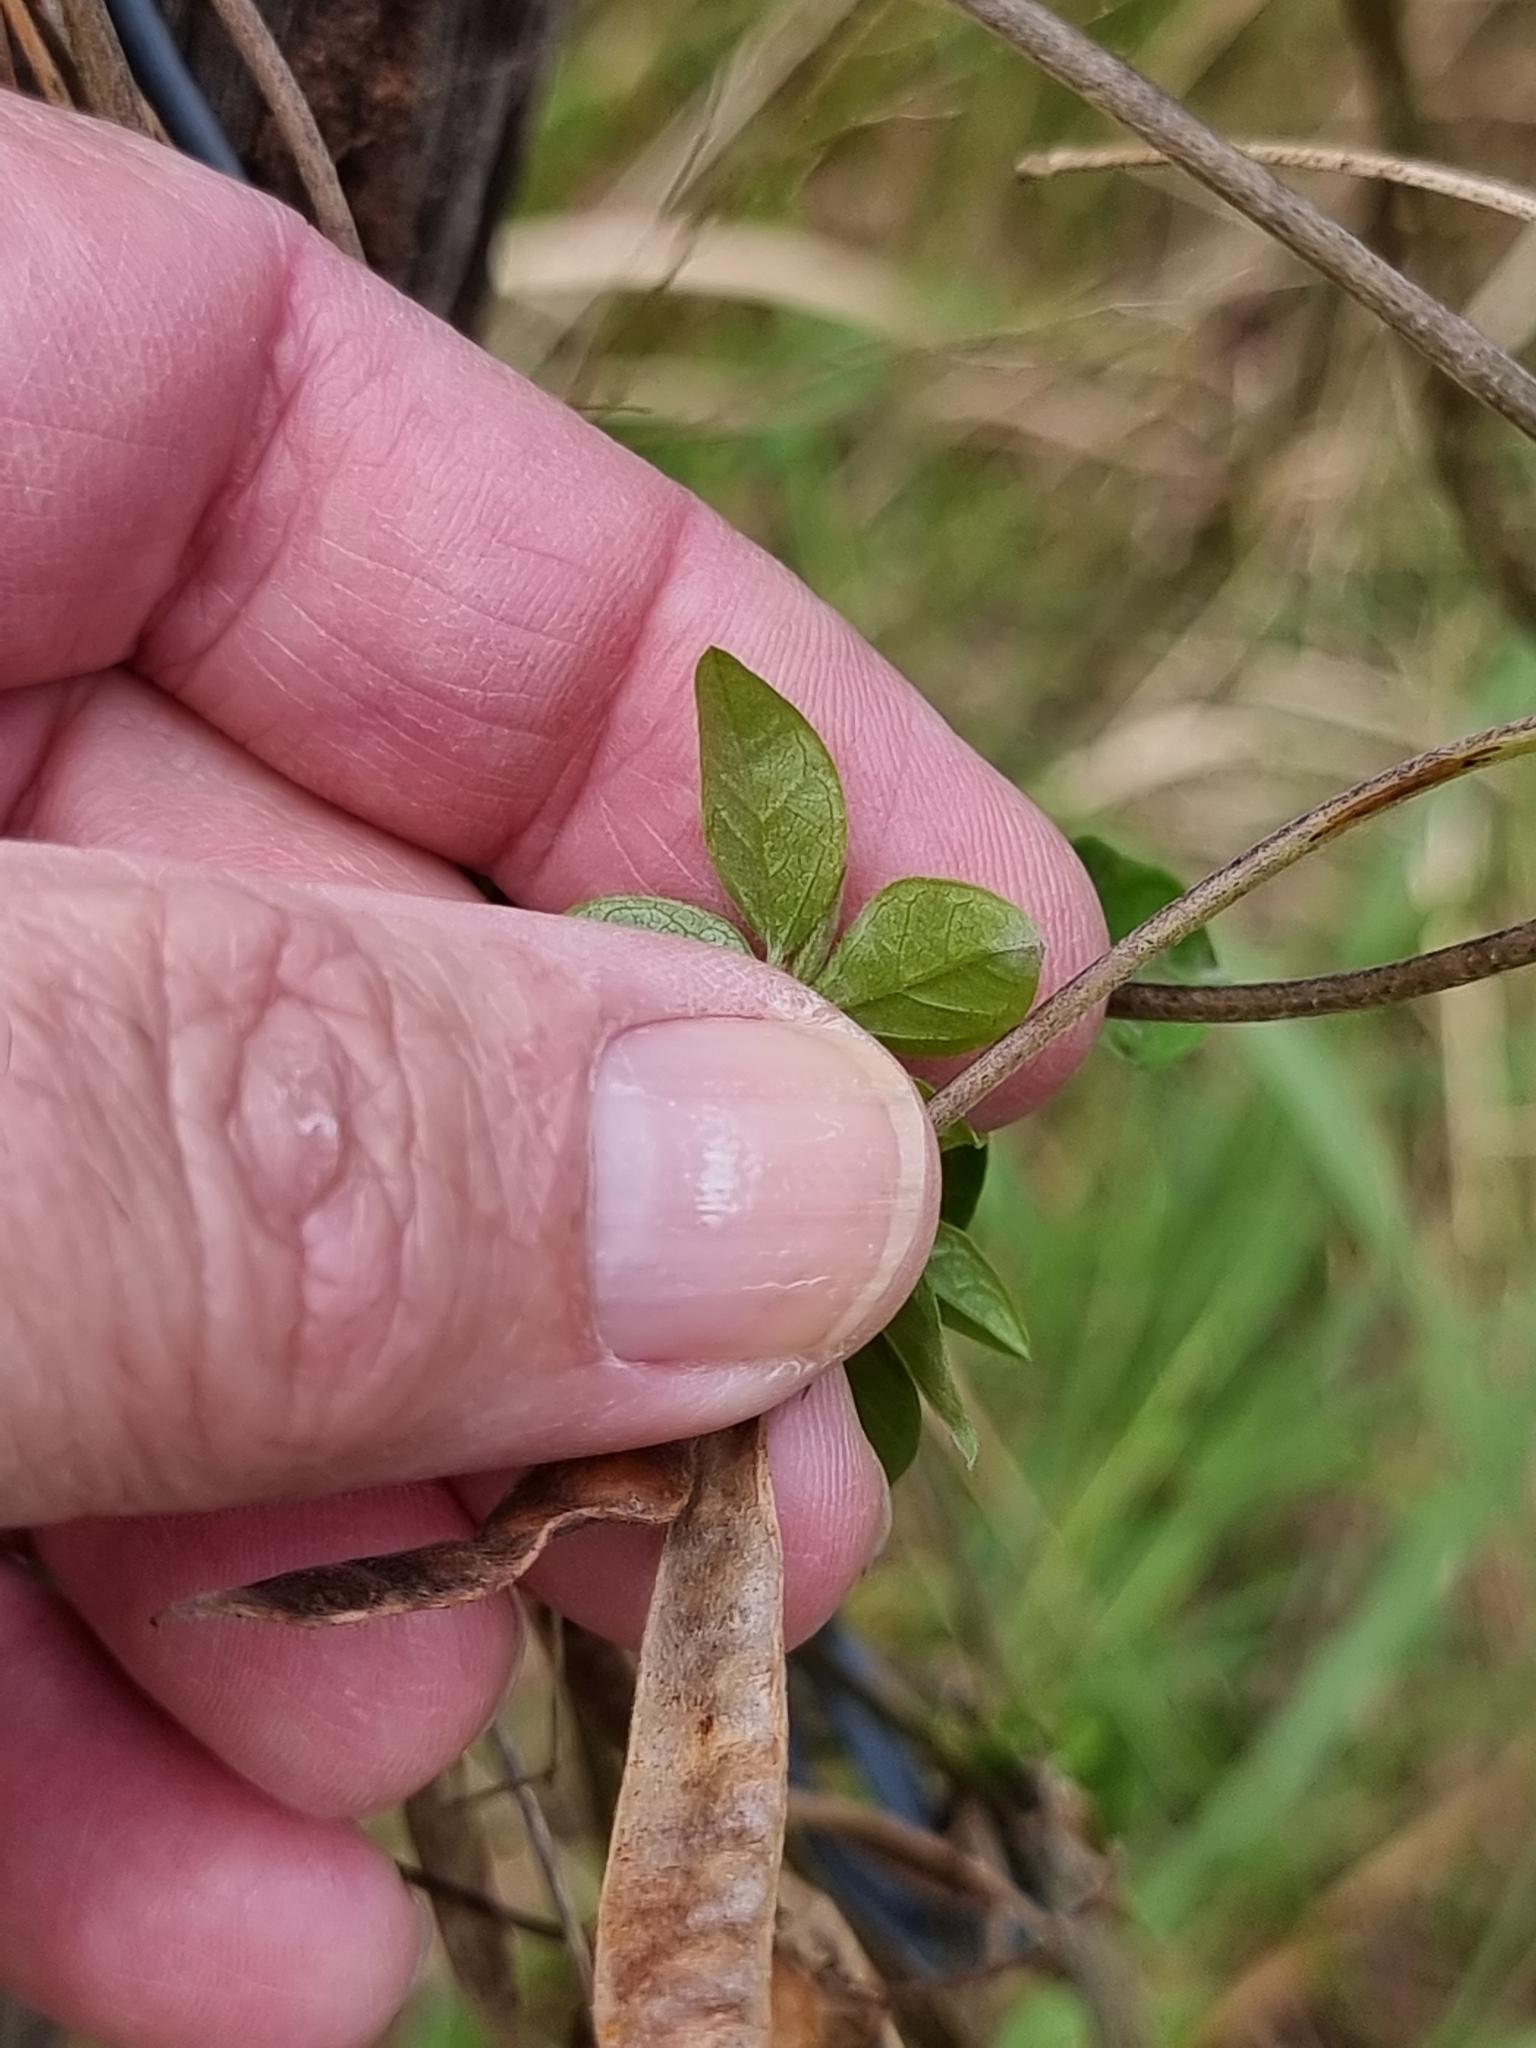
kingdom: Plantae
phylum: Tracheophyta
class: Magnoliopsida
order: Fabales
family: Fabaceae
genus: Macrotyloma
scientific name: Macrotyloma axillare
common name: Perennial horsegram
